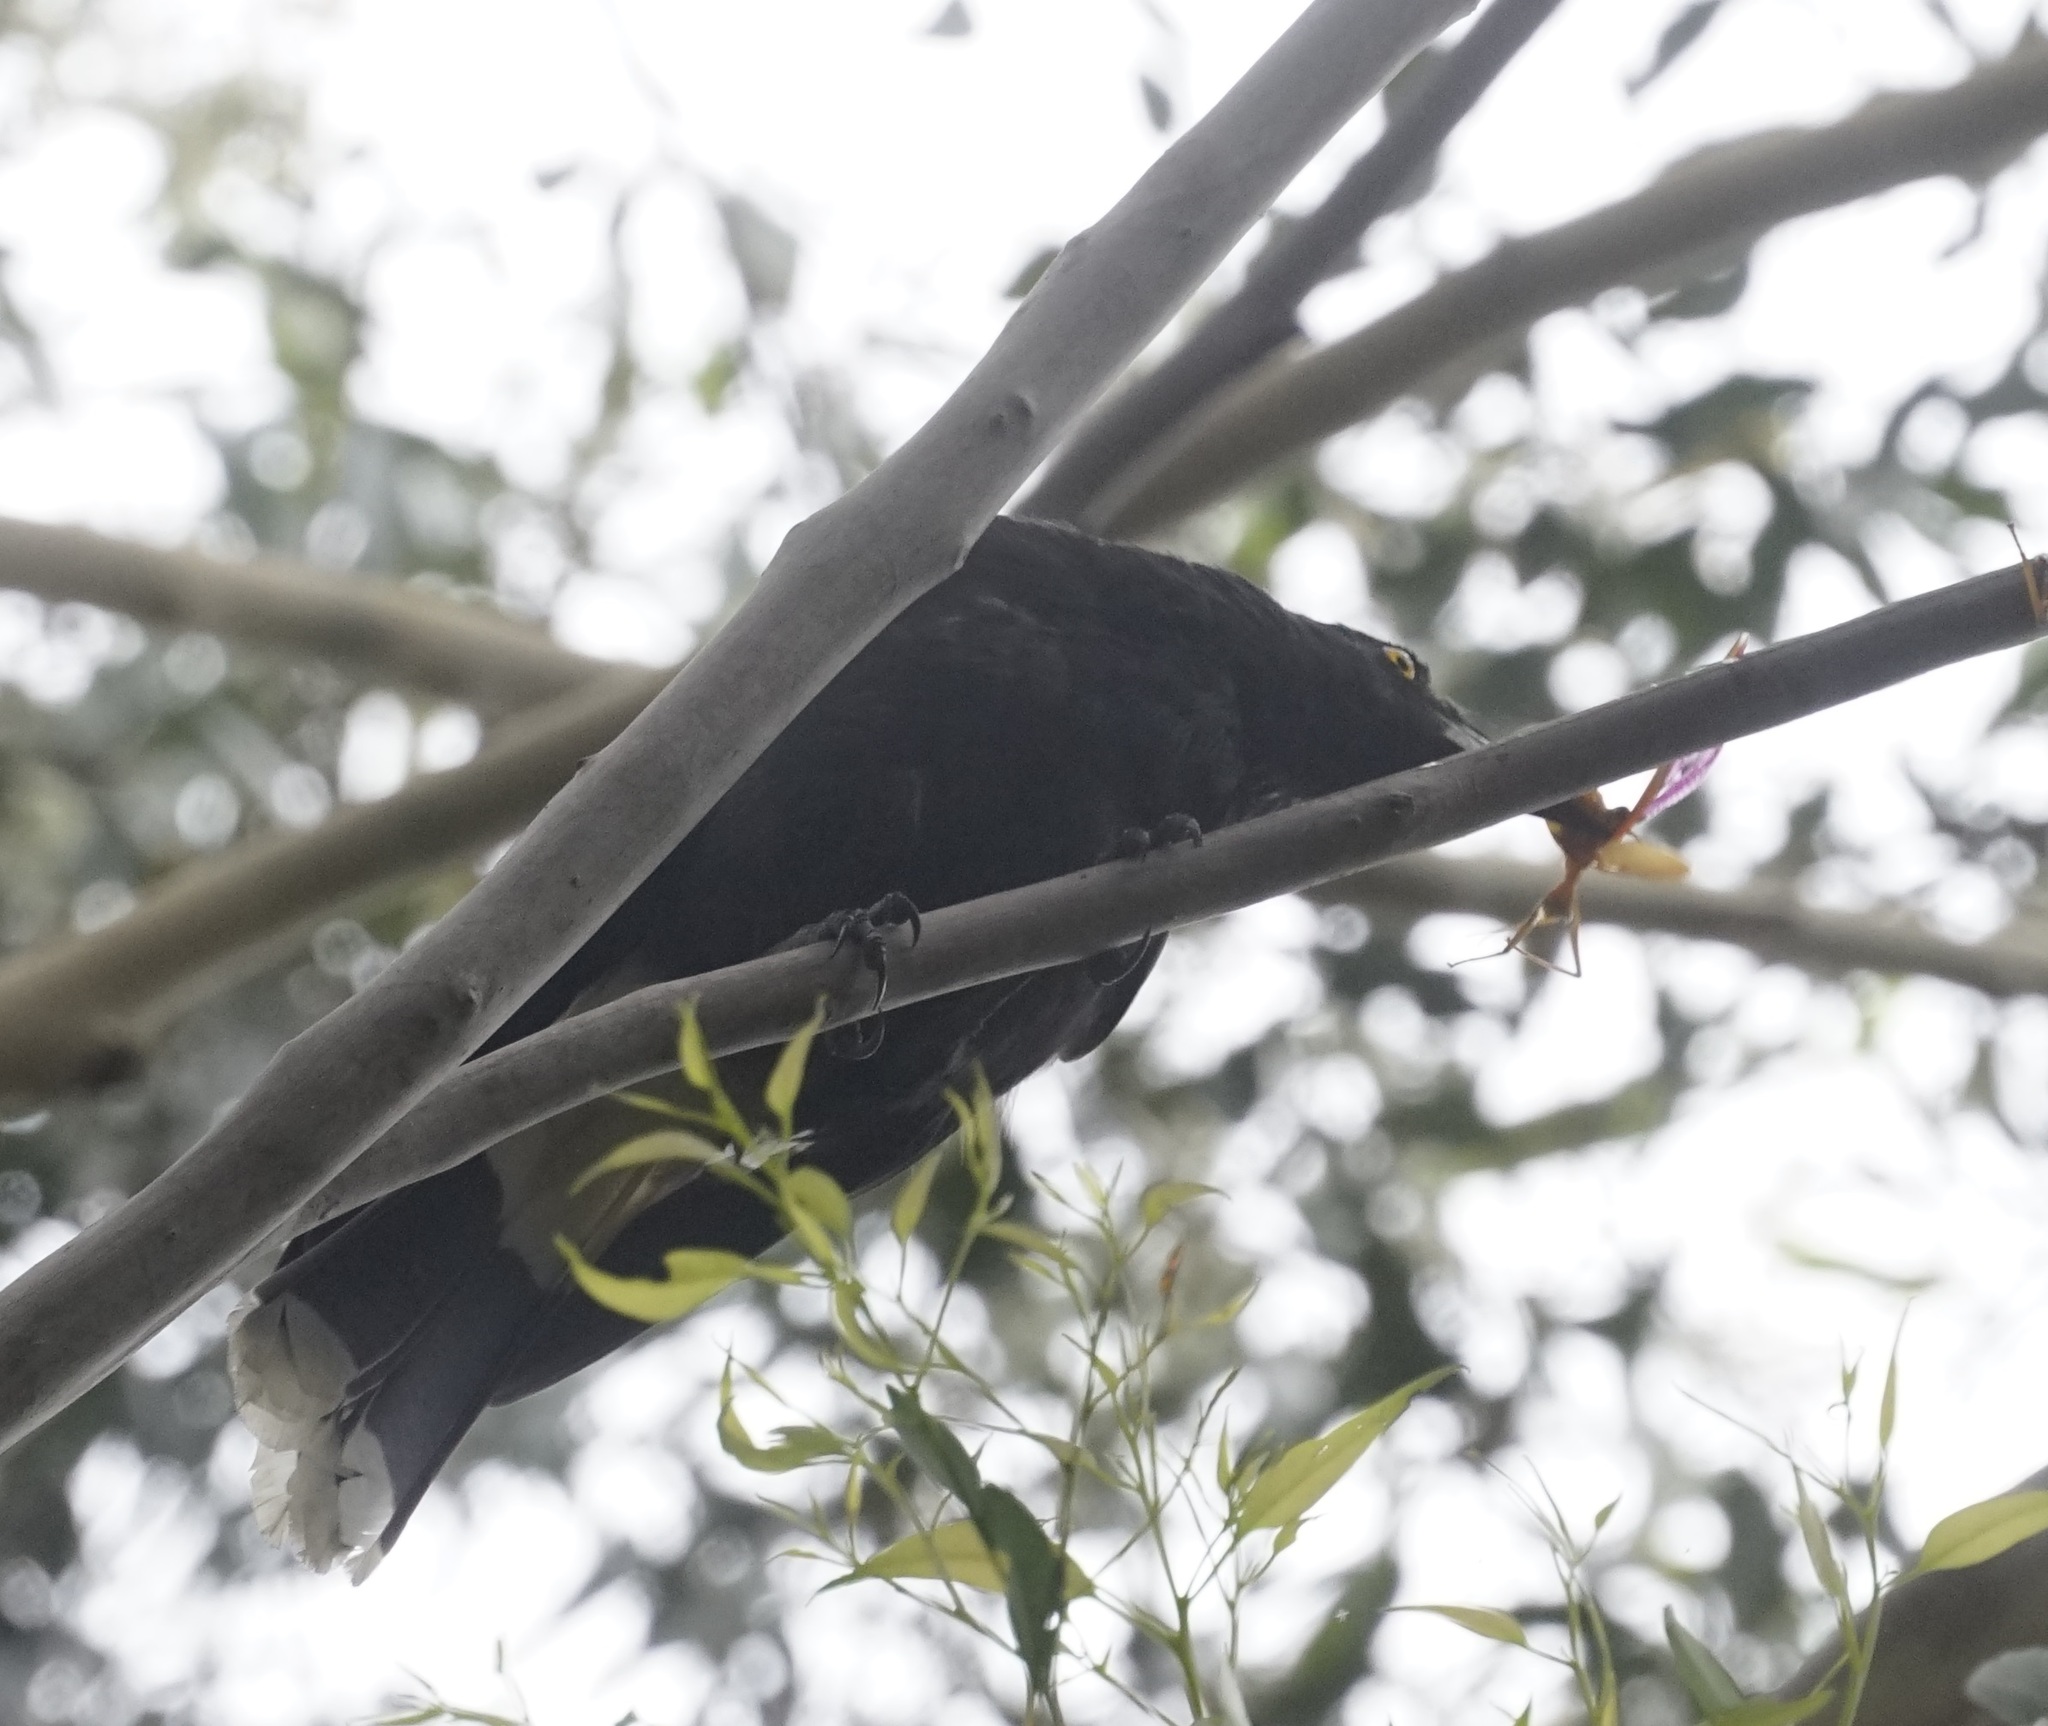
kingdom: Animalia
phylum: Chordata
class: Aves
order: Passeriformes
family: Cracticidae
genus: Strepera
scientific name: Strepera graculina
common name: Pied currawong
